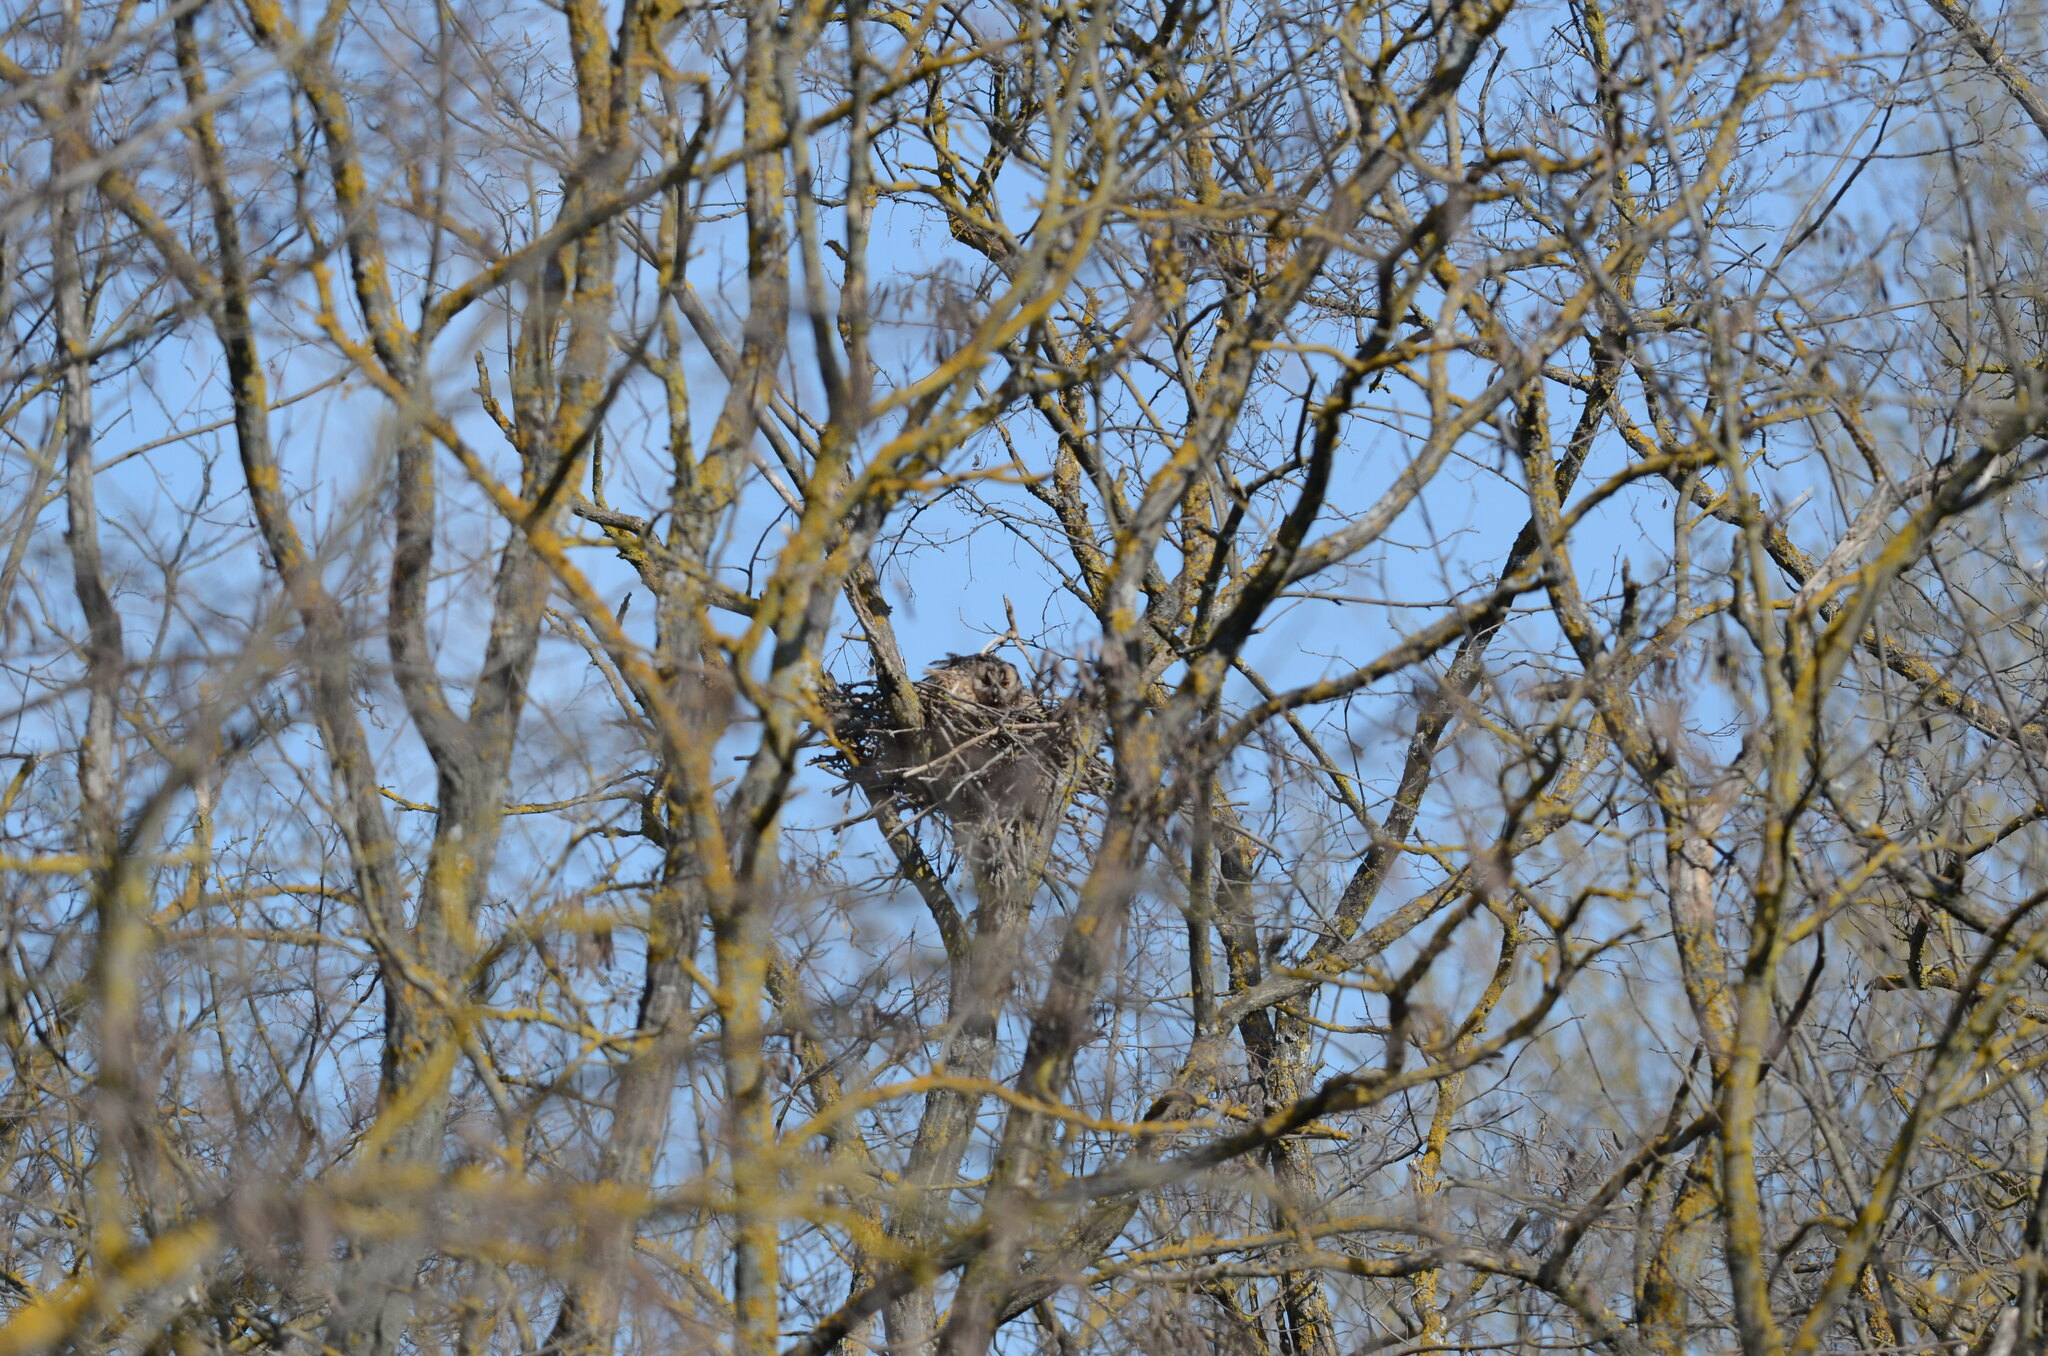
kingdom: Animalia
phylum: Chordata
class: Aves
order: Strigiformes
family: Strigidae
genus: Asio
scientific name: Asio otus
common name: Long-eared owl
